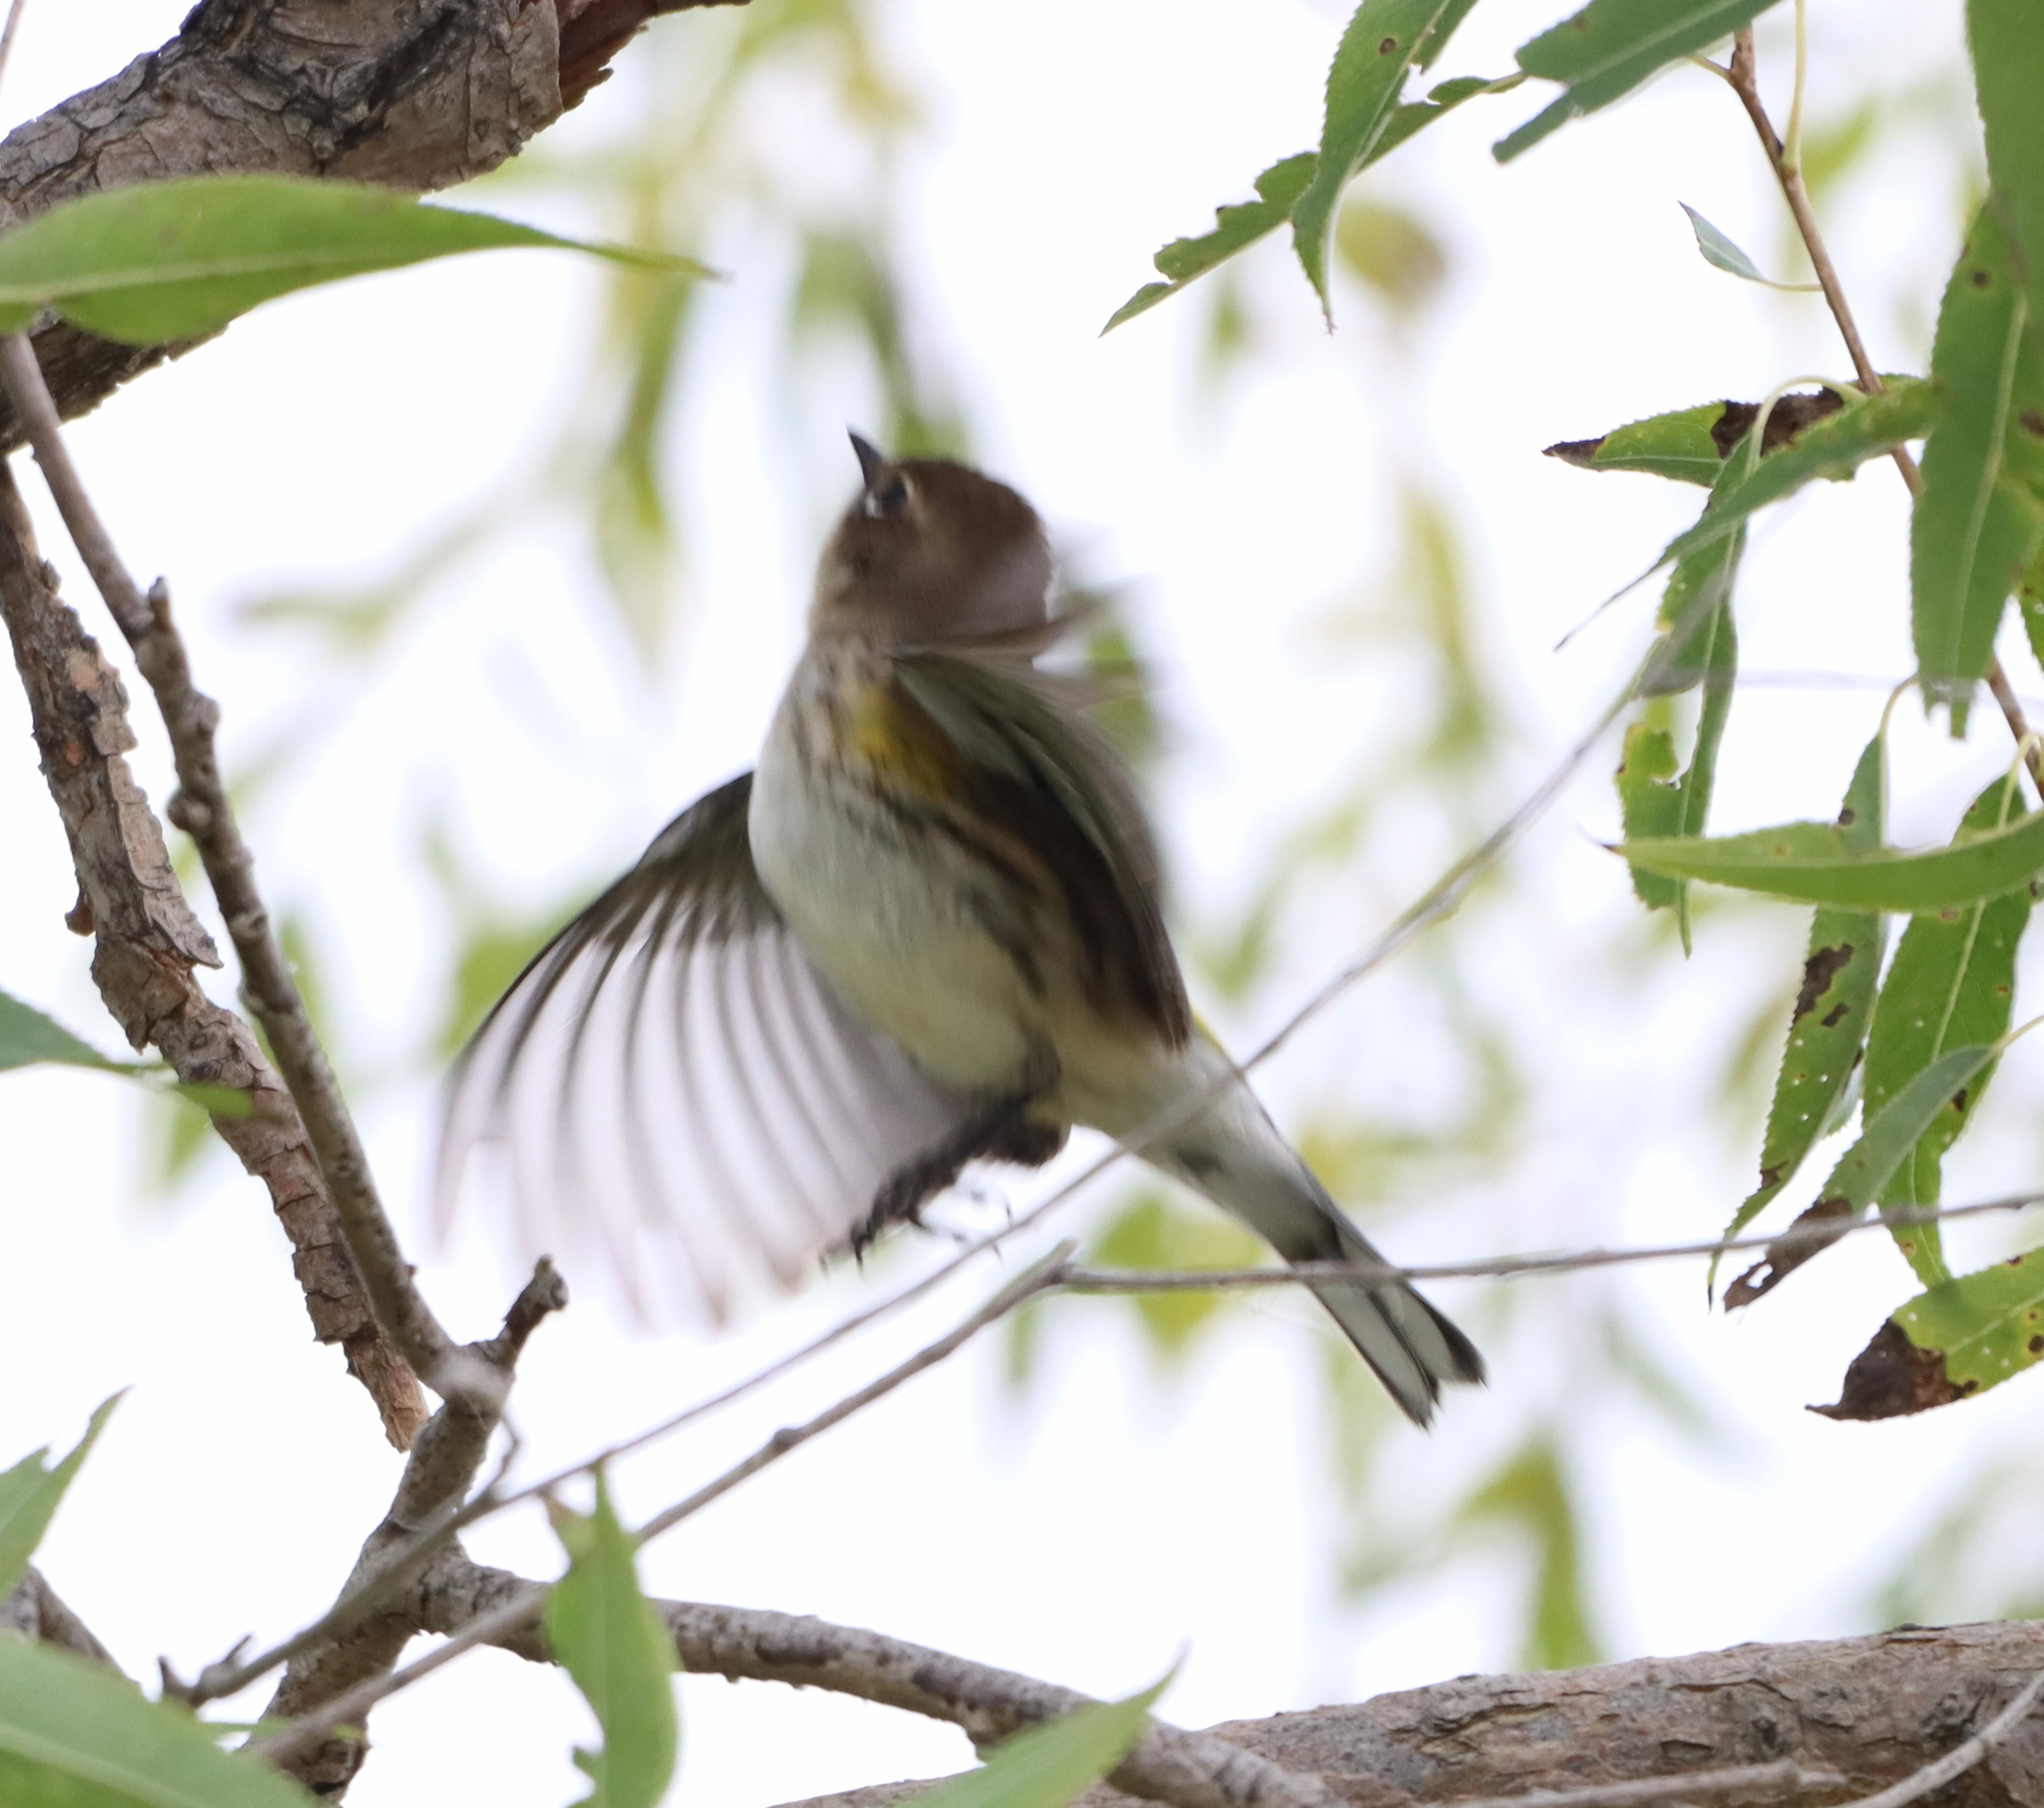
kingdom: Animalia
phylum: Chordata
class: Aves
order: Passeriformes
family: Parulidae
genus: Setophaga
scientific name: Setophaga coronata
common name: Myrtle warbler
